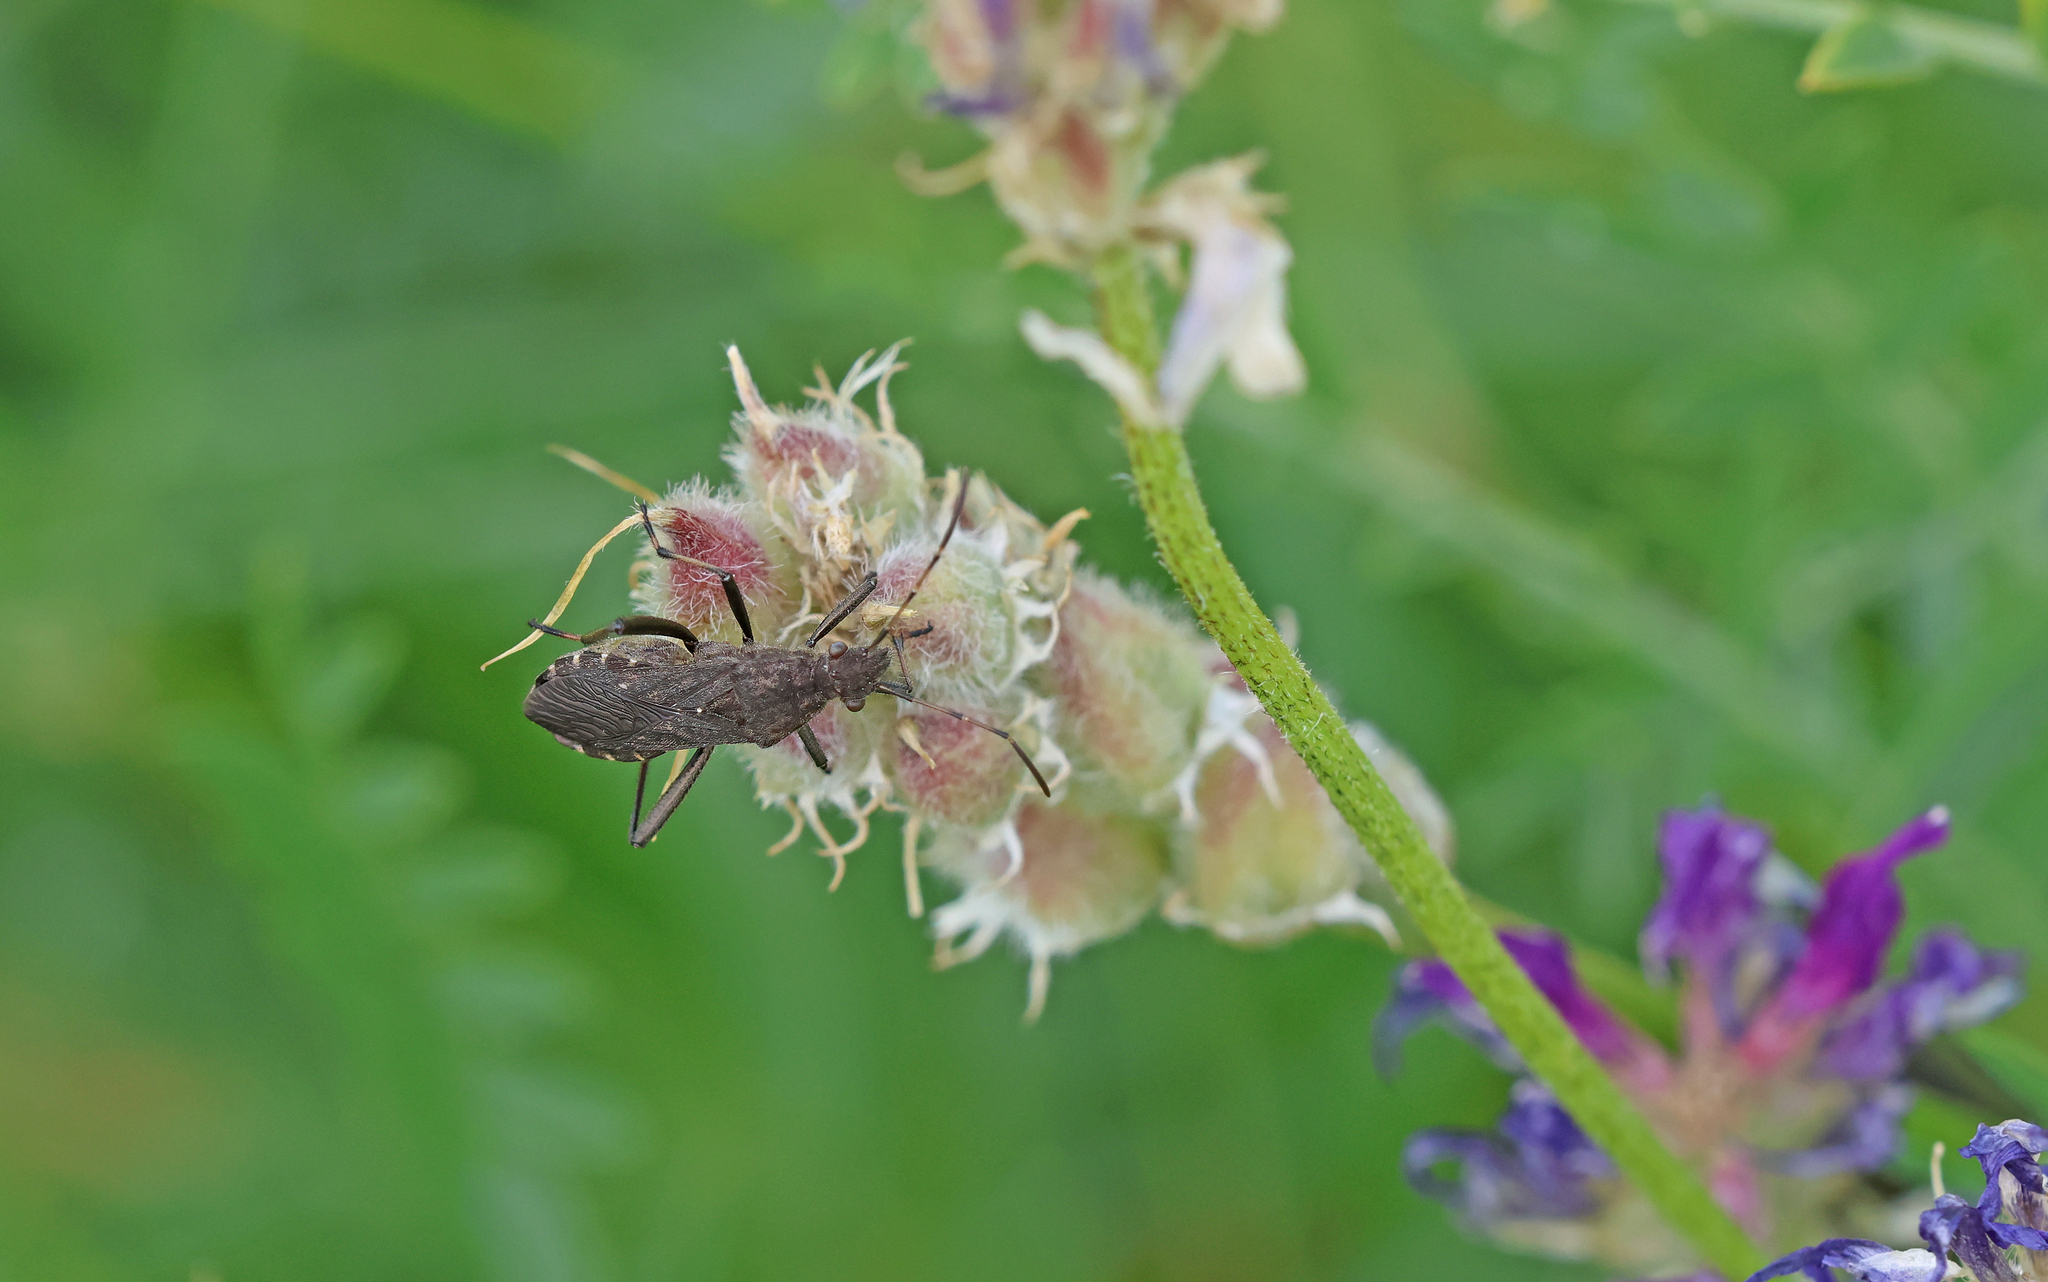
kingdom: Animalia
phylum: Arthropoda
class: Insecta
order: Hemiptera
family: Alydidae
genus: Alydus
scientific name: Alydus calcaratus
